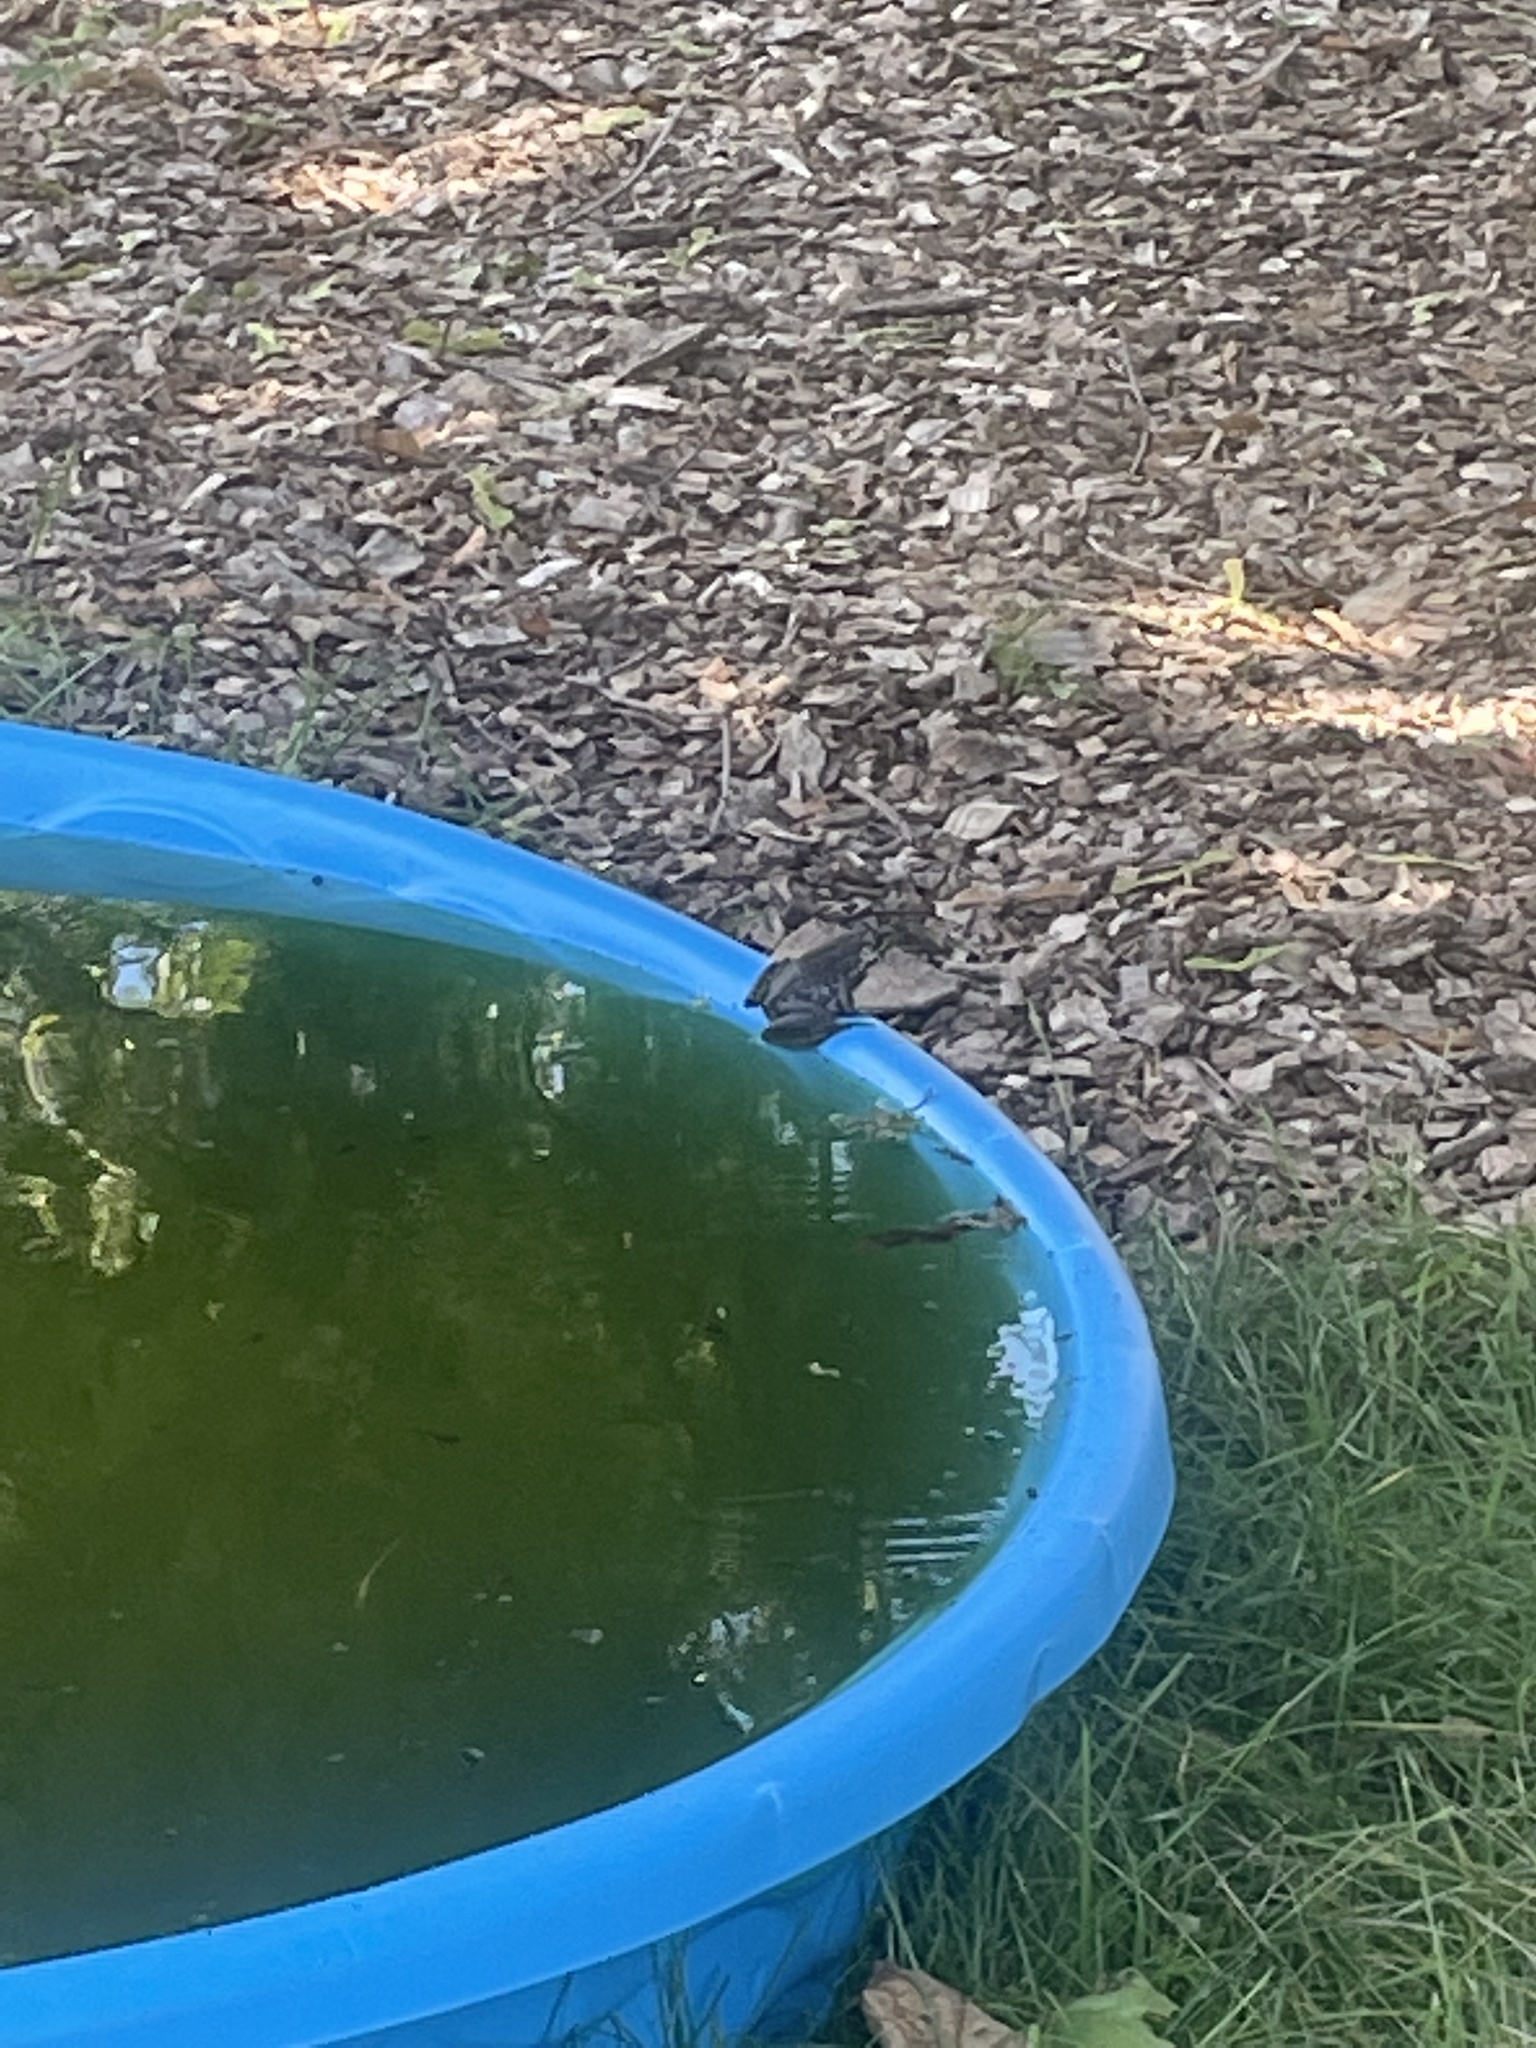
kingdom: Animalia
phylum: Chordata
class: Amphibia
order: Anura
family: Ranidae
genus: Lithobates
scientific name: Lithobates clamitans
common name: Green frog
